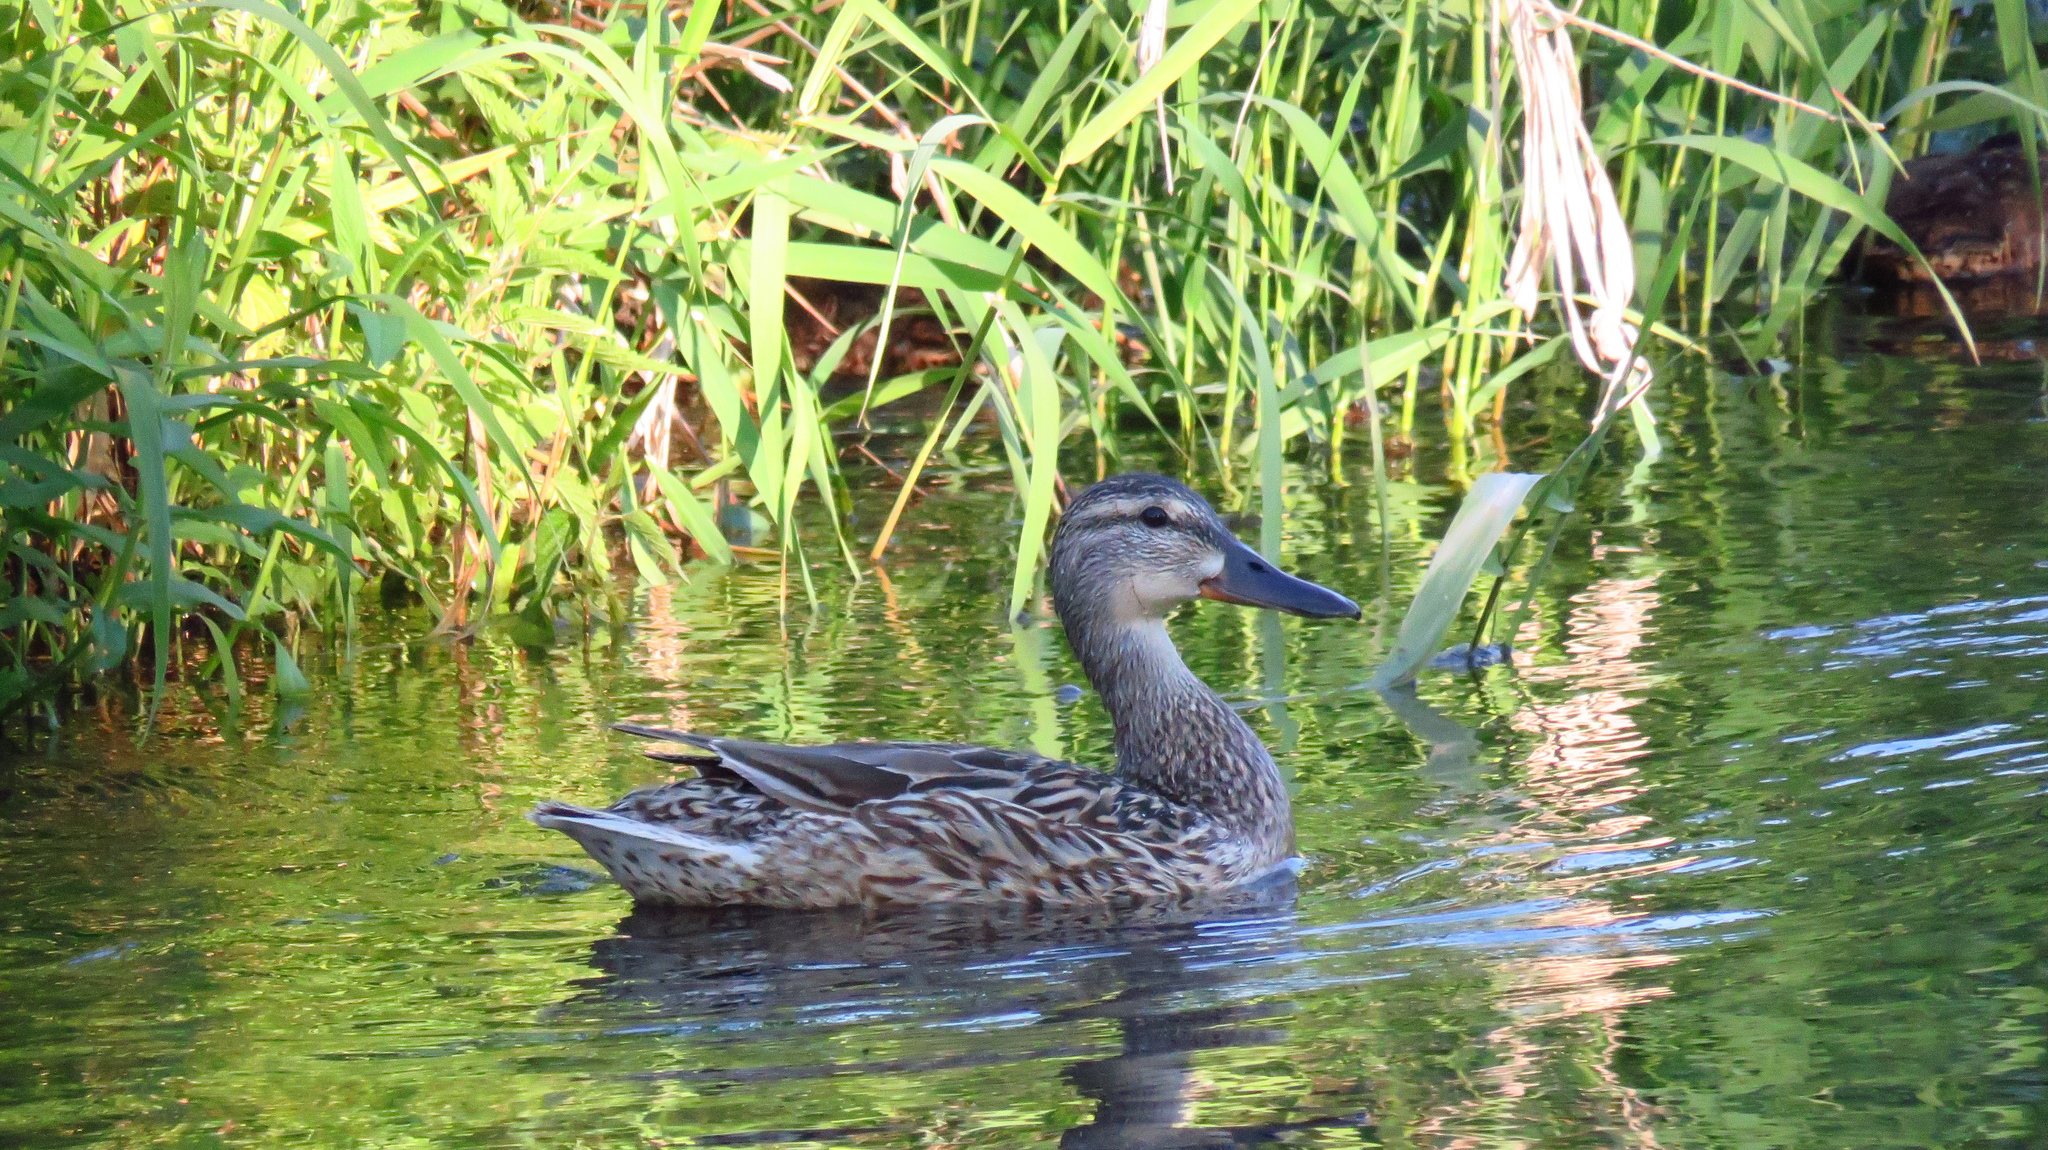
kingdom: Animalia
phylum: Chordata
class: Aves
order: Anseriformes
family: Anatidae
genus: Anas
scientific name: Anas platyrhynchos
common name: Mallard
